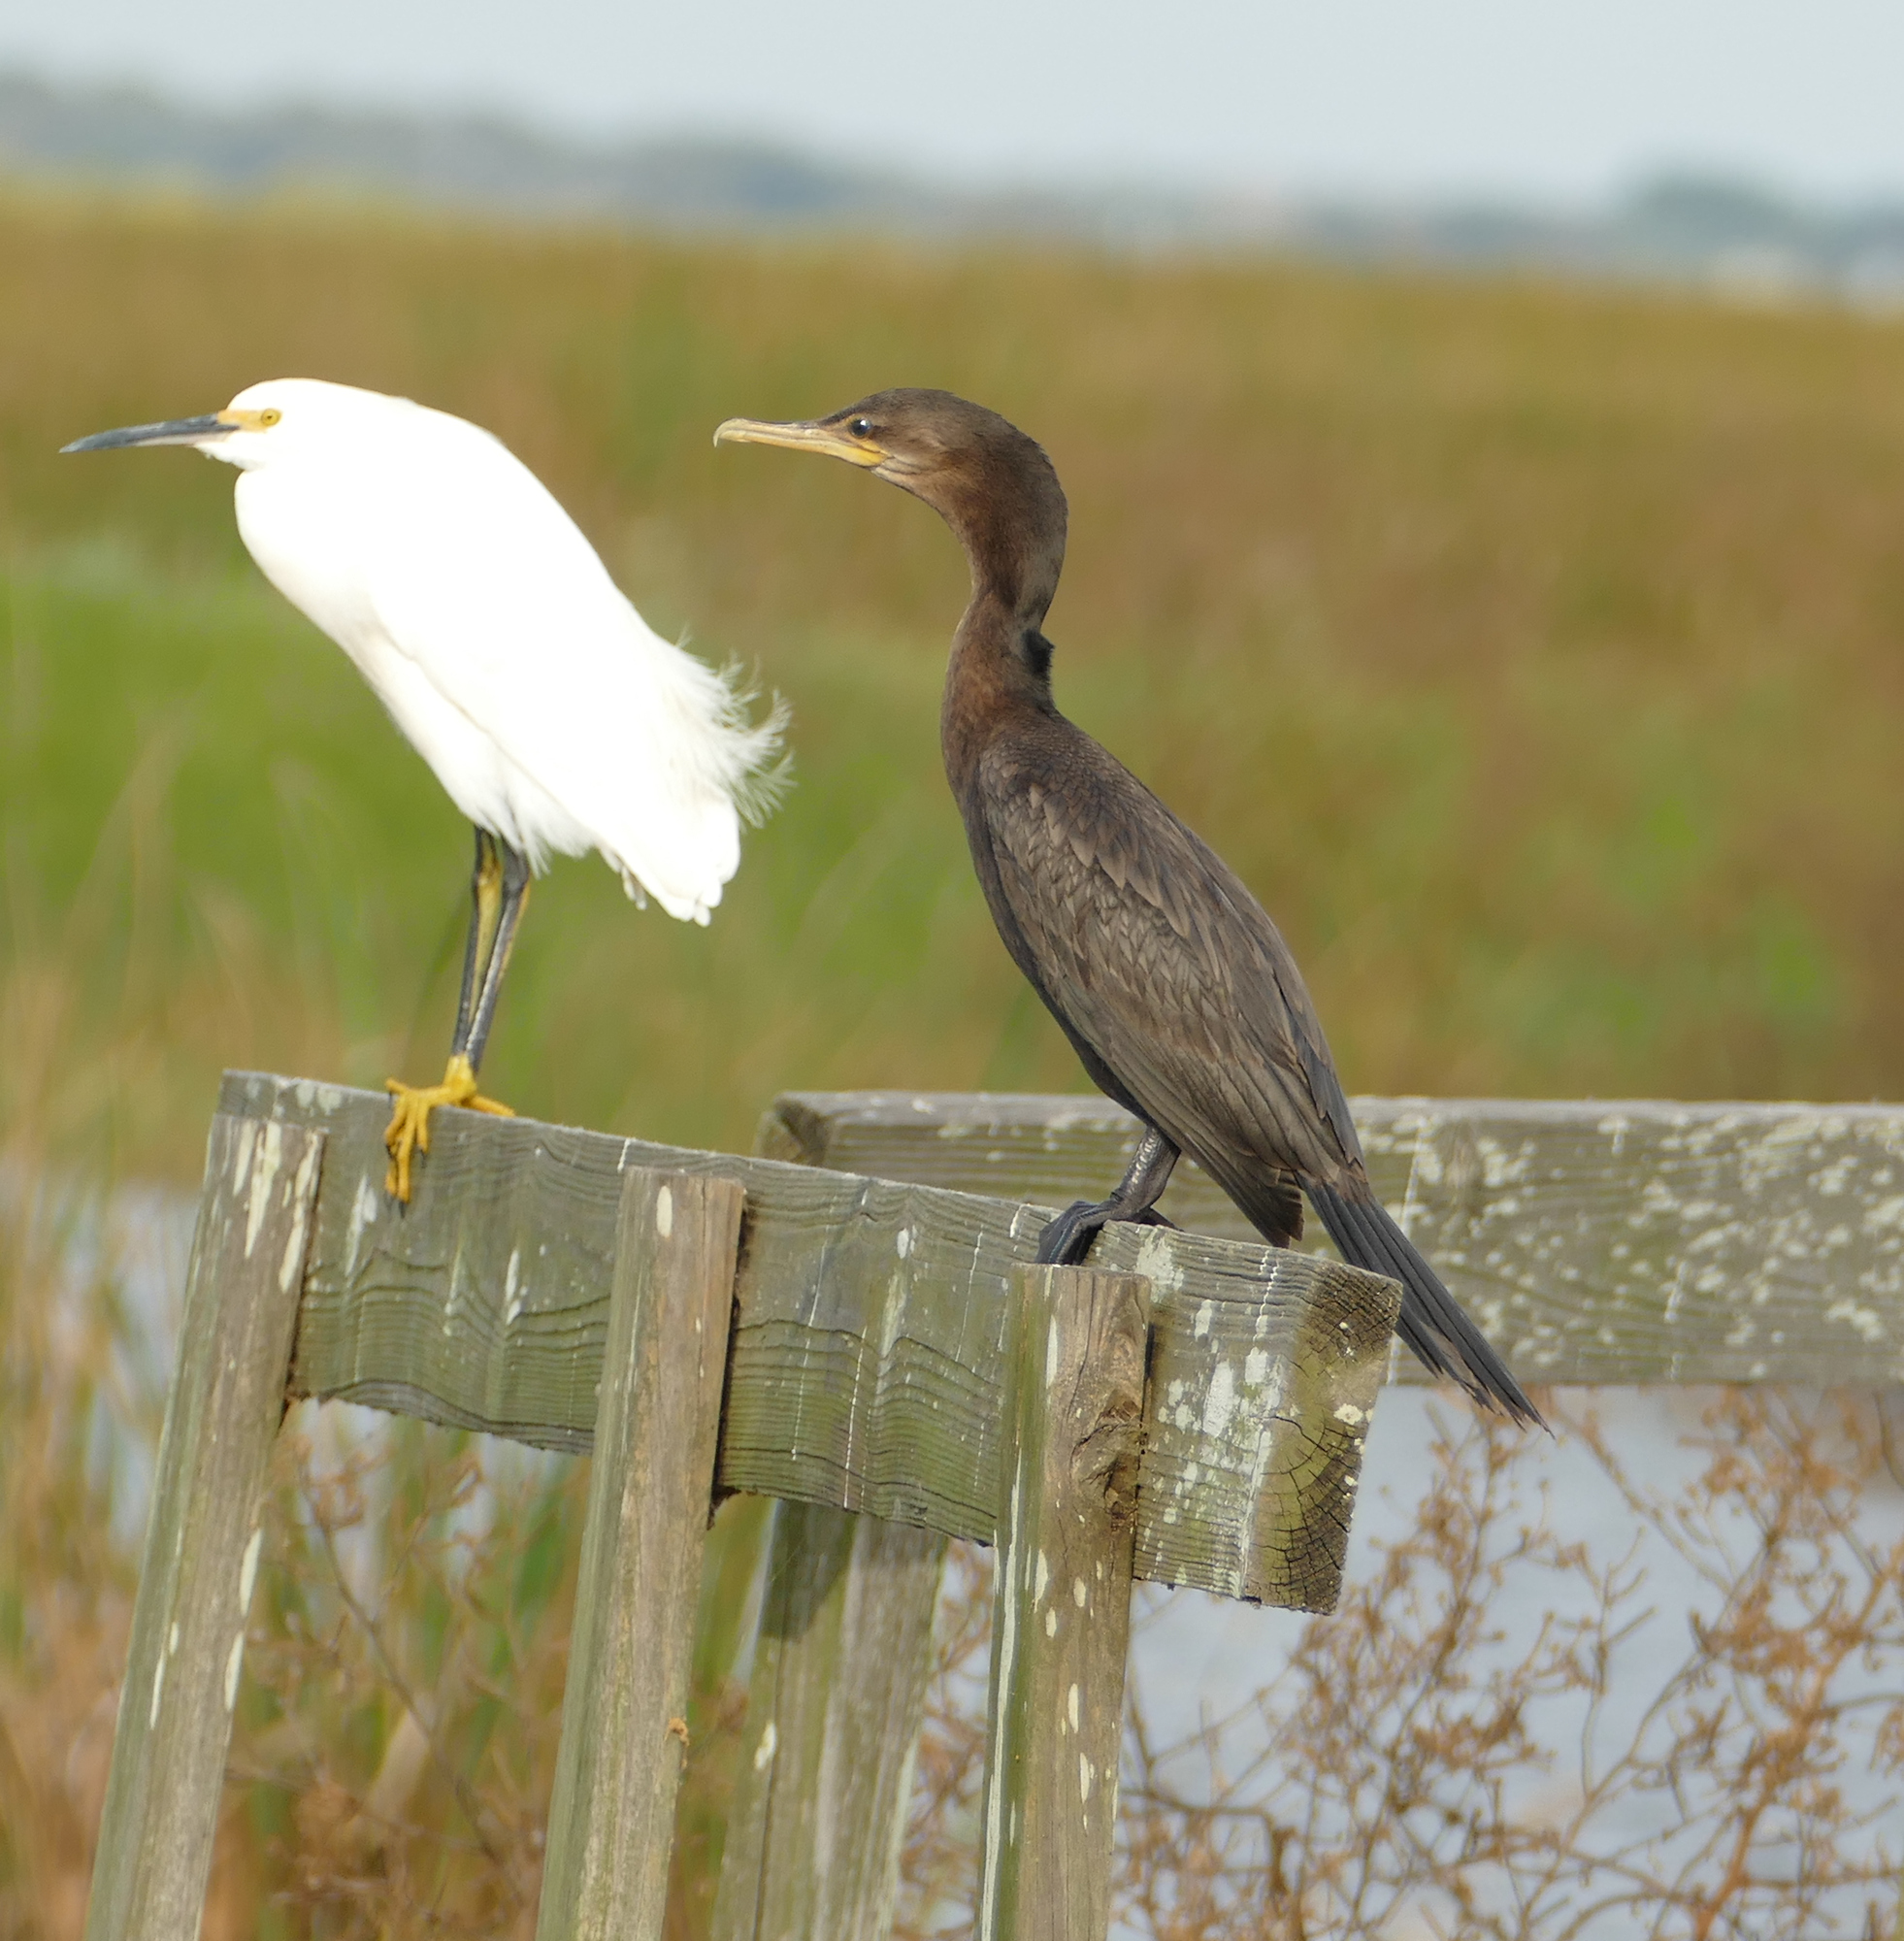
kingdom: Animalia
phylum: Chordata
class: Aves
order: Suliformes
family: Phalacrocoracidae
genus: Phalacrocorax
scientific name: Phalacrocorax brasilianus
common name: Neotropic cormorant
